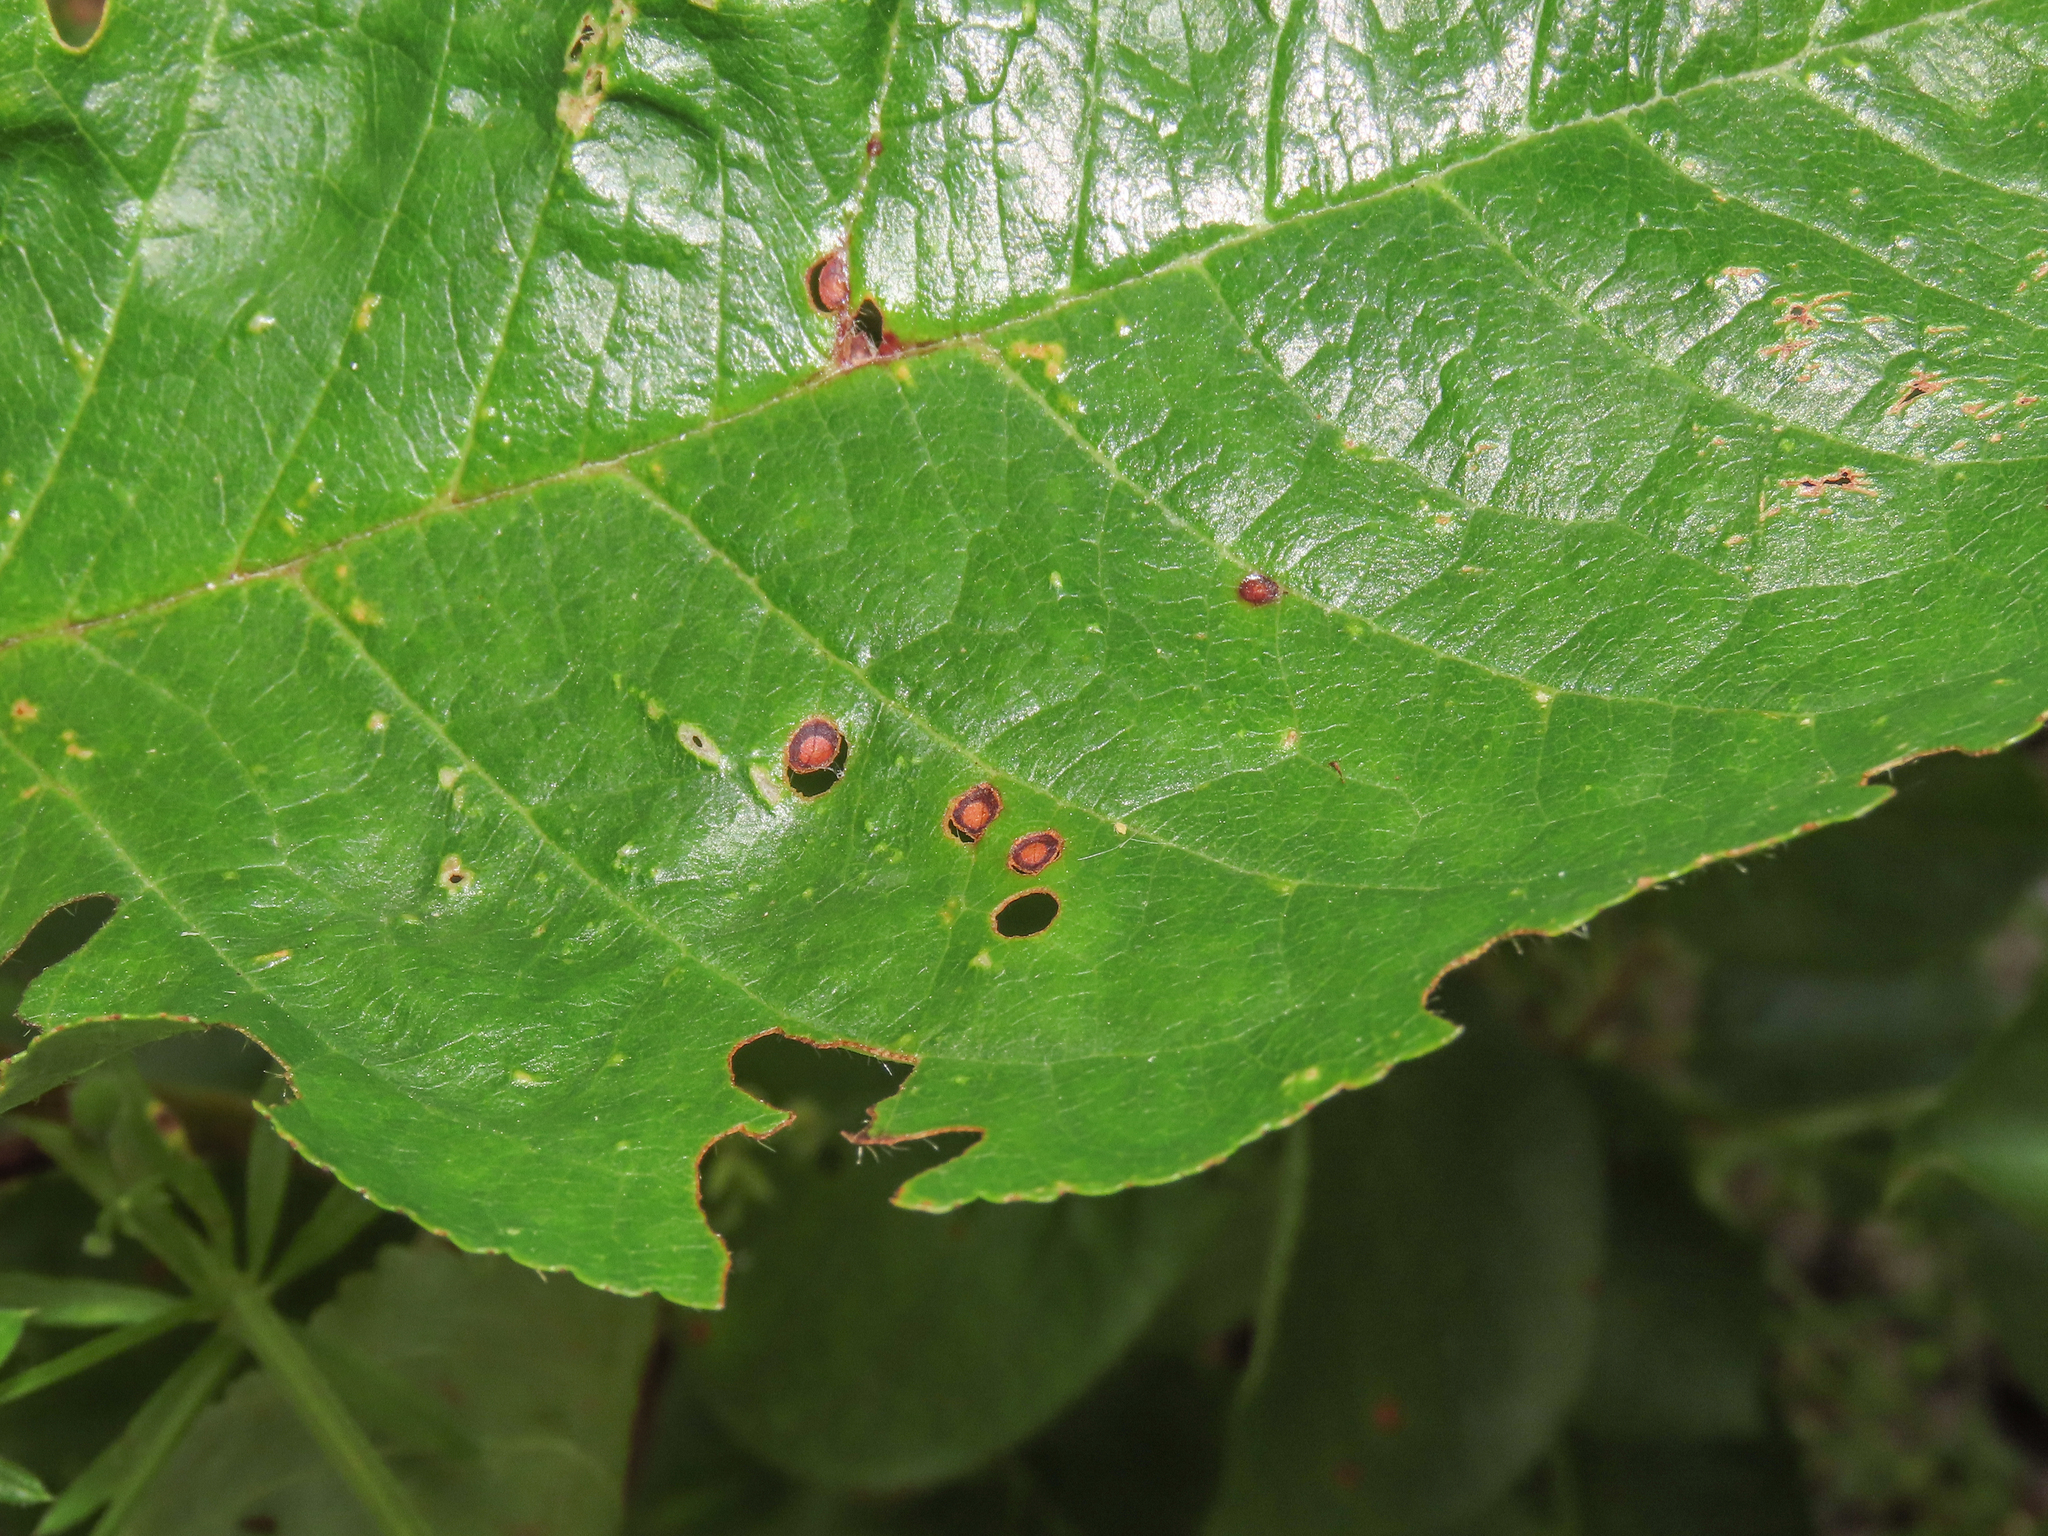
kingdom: Fungi
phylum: Ascomycota
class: Dothideomycetes
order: Mycosphaerellales
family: Mycosphaerellaceae
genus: Stigmina
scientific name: Stigmina carpophila
